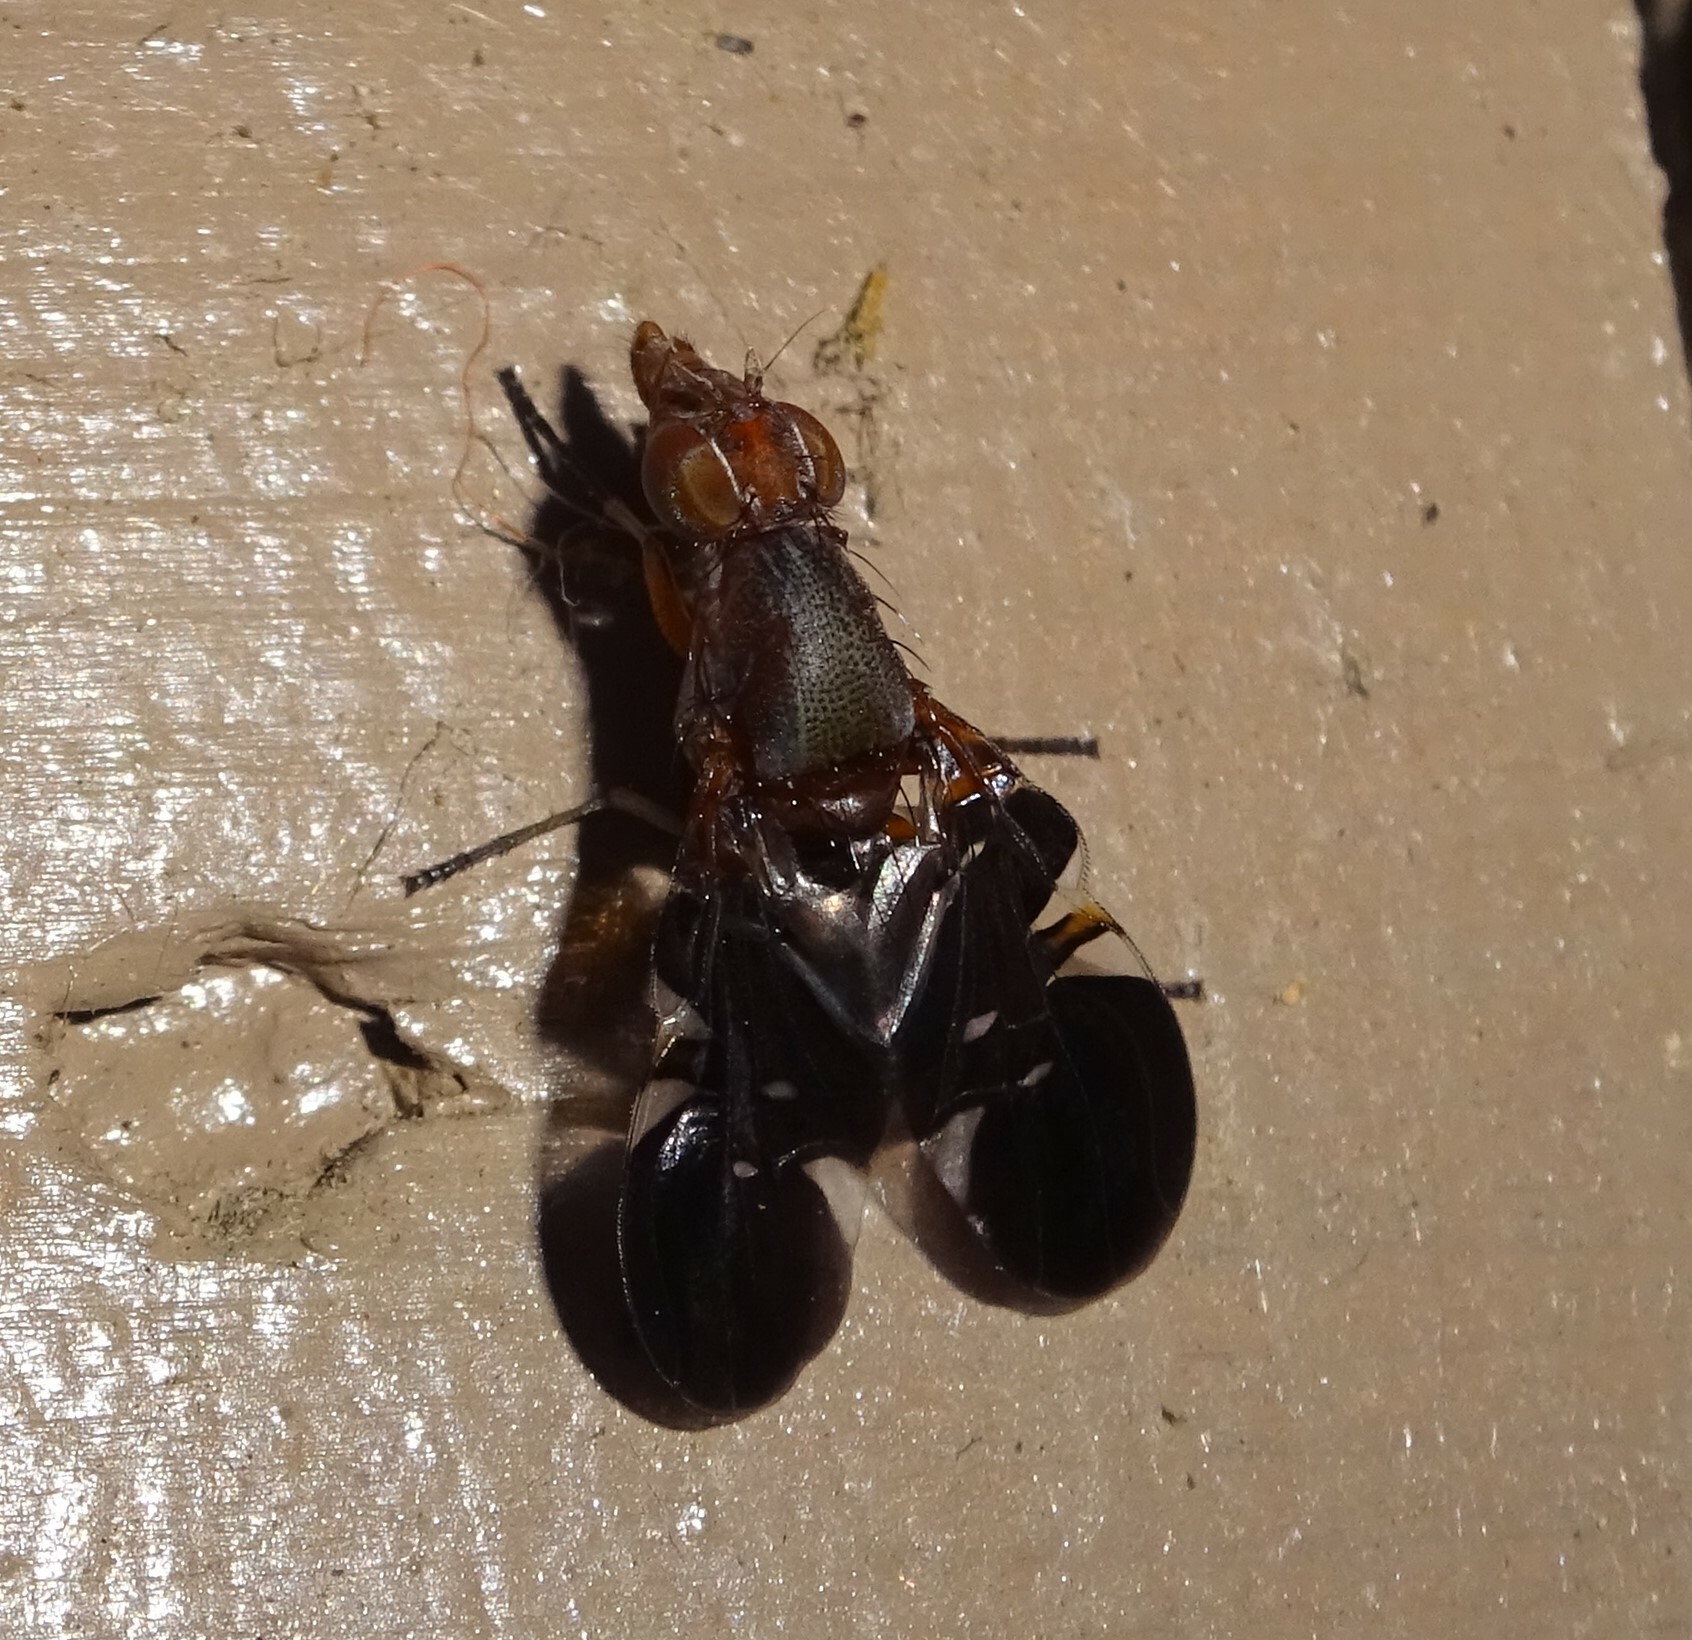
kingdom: Animalia
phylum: Arthropoda
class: Insecta
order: Diptera
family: Ulidiidae
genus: Delphinia
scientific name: Delphinia picta
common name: Common picture-winged fly
